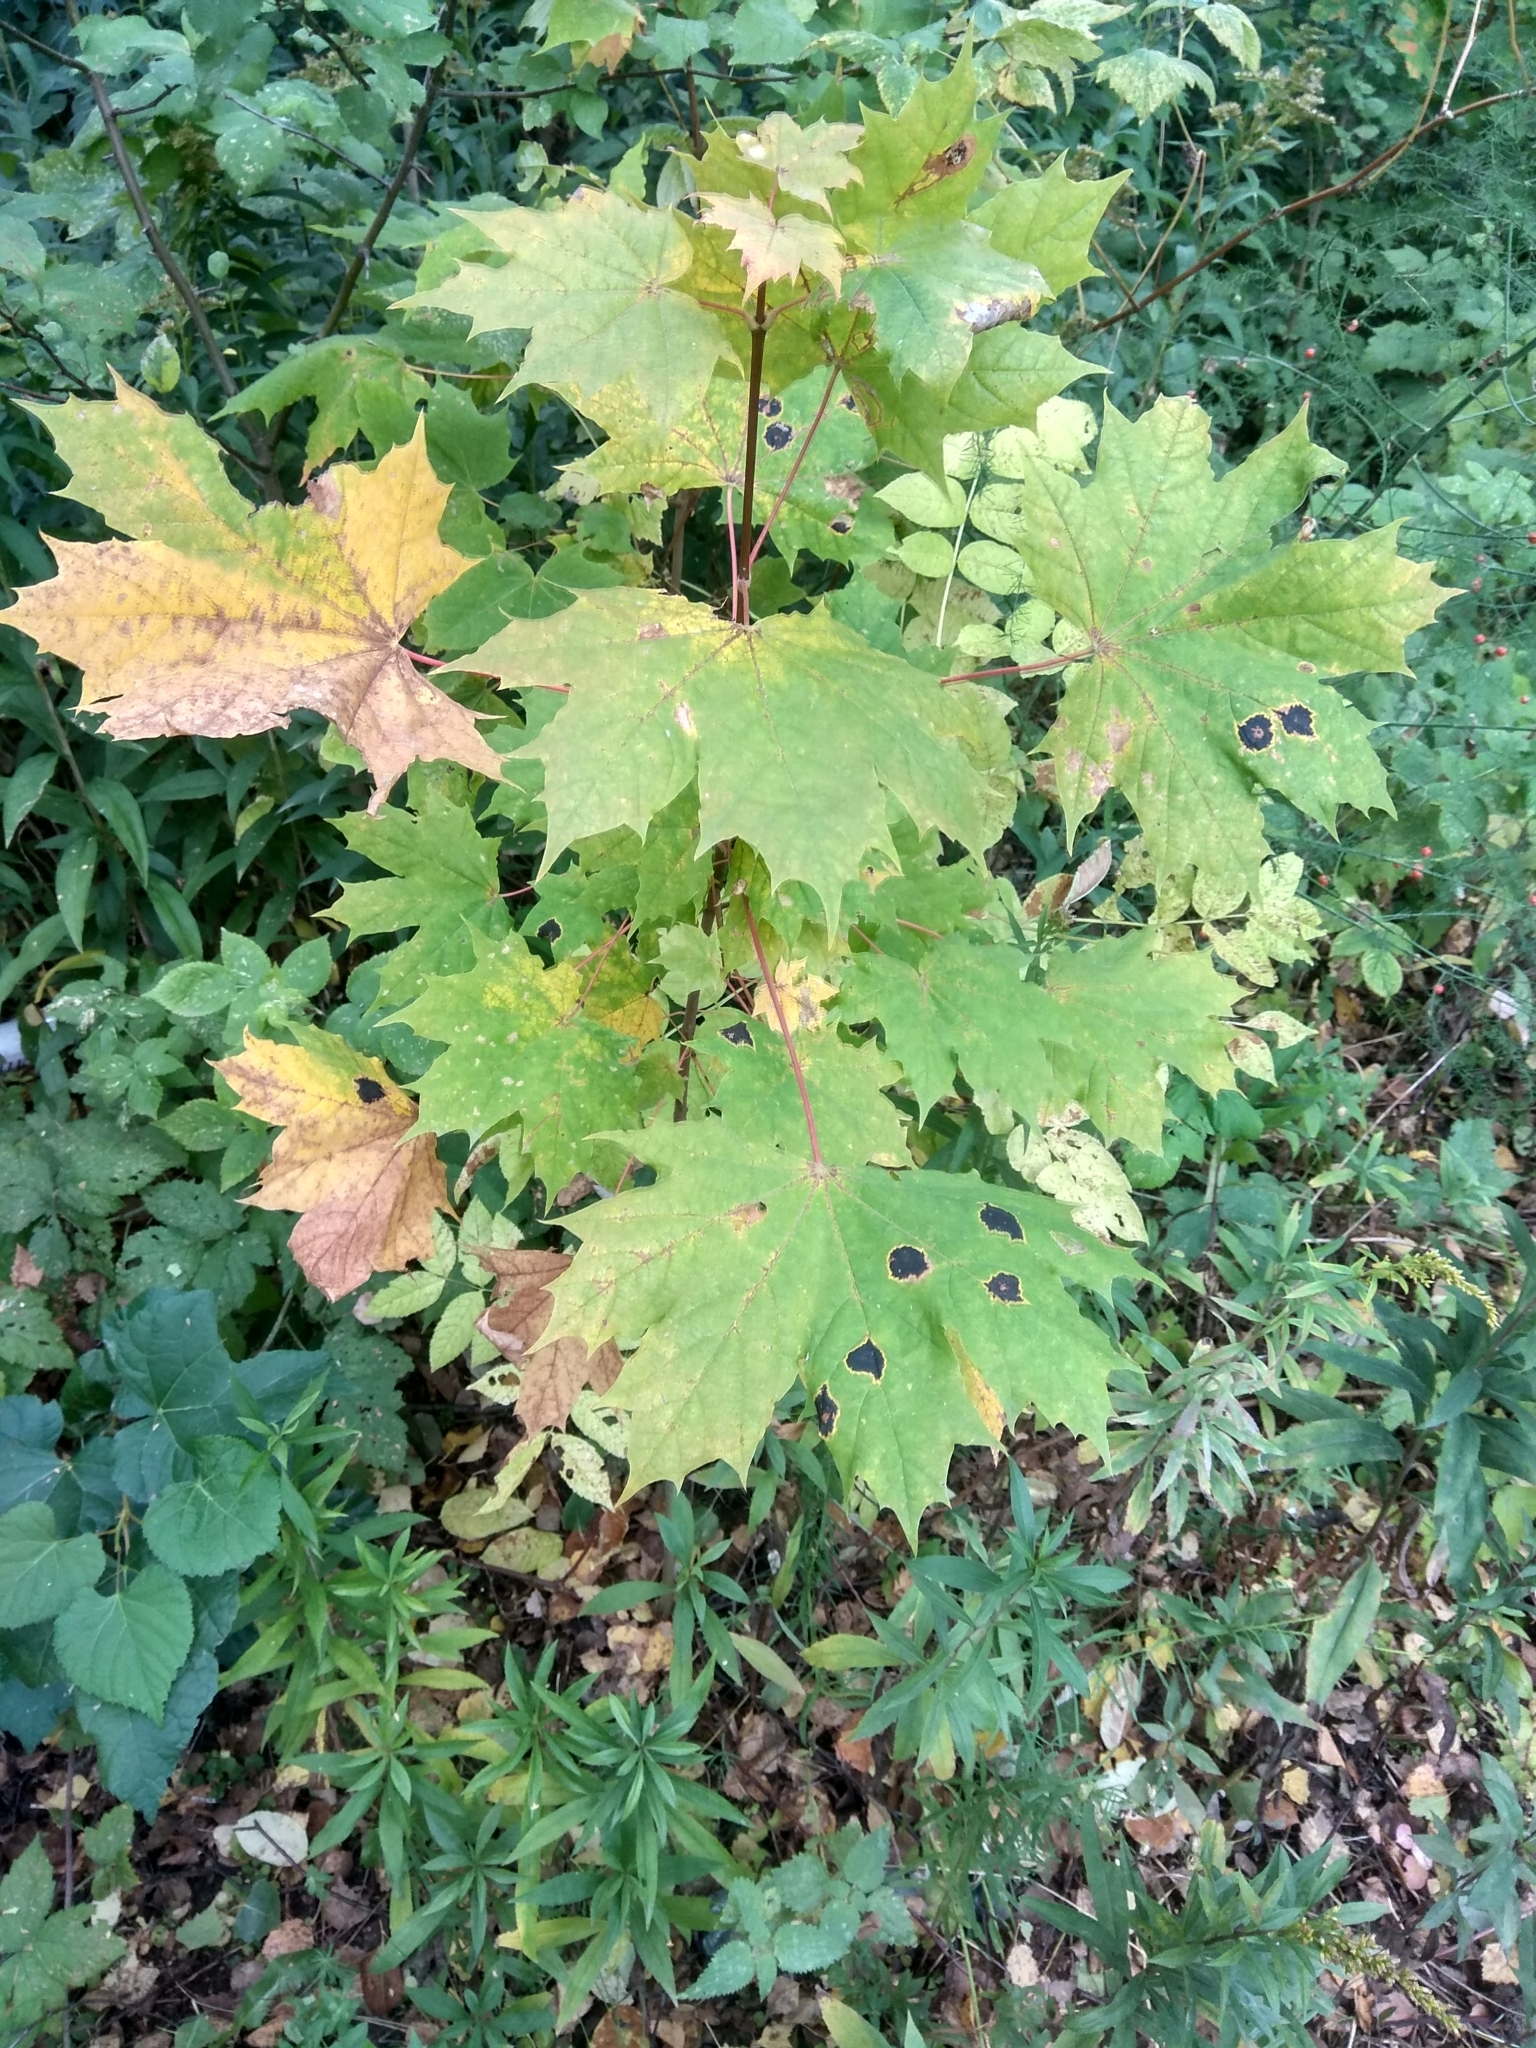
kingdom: Plantae
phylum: Tracheophyta
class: Magnoliopsida
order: Sapindales
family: Sapindaceae
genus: Acer
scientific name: Acer platanoides
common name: Norway maple
